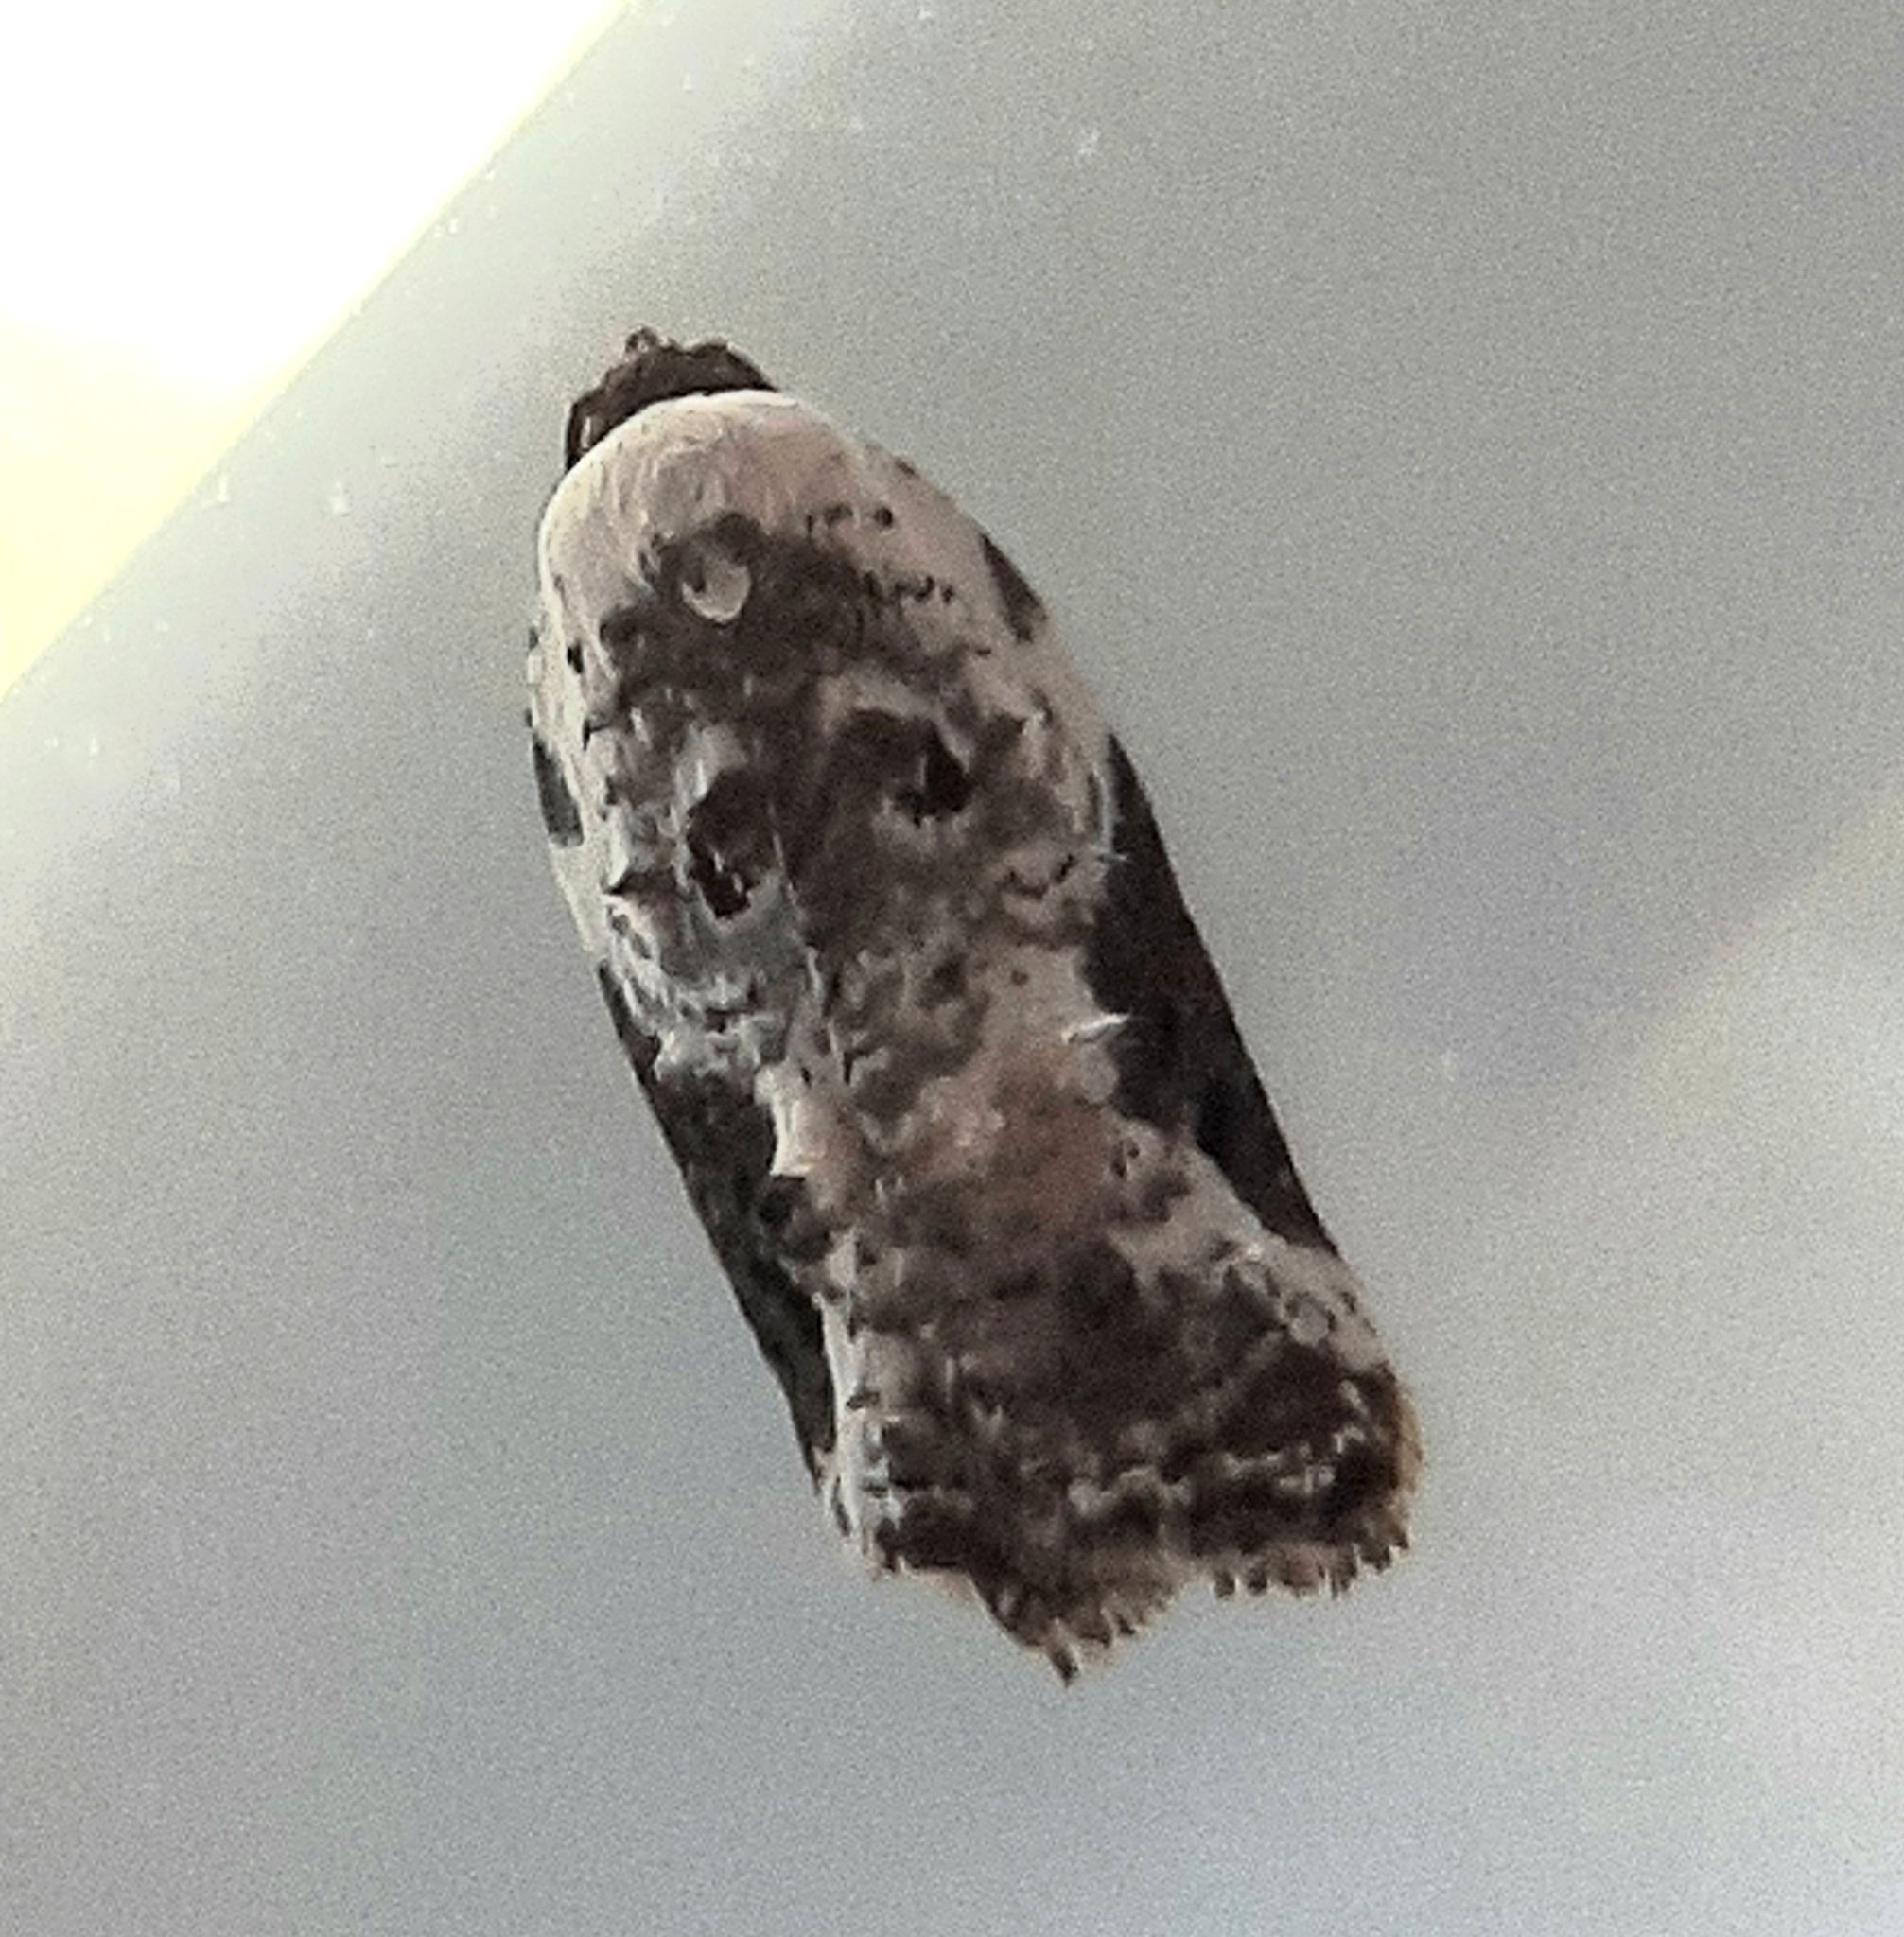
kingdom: Animalia
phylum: Arthropoda
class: Insecta
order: Lepidoptera
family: Tortricidae
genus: Acleris
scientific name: Acleris nivisellana
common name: Snowy-shouldered acleris moth
